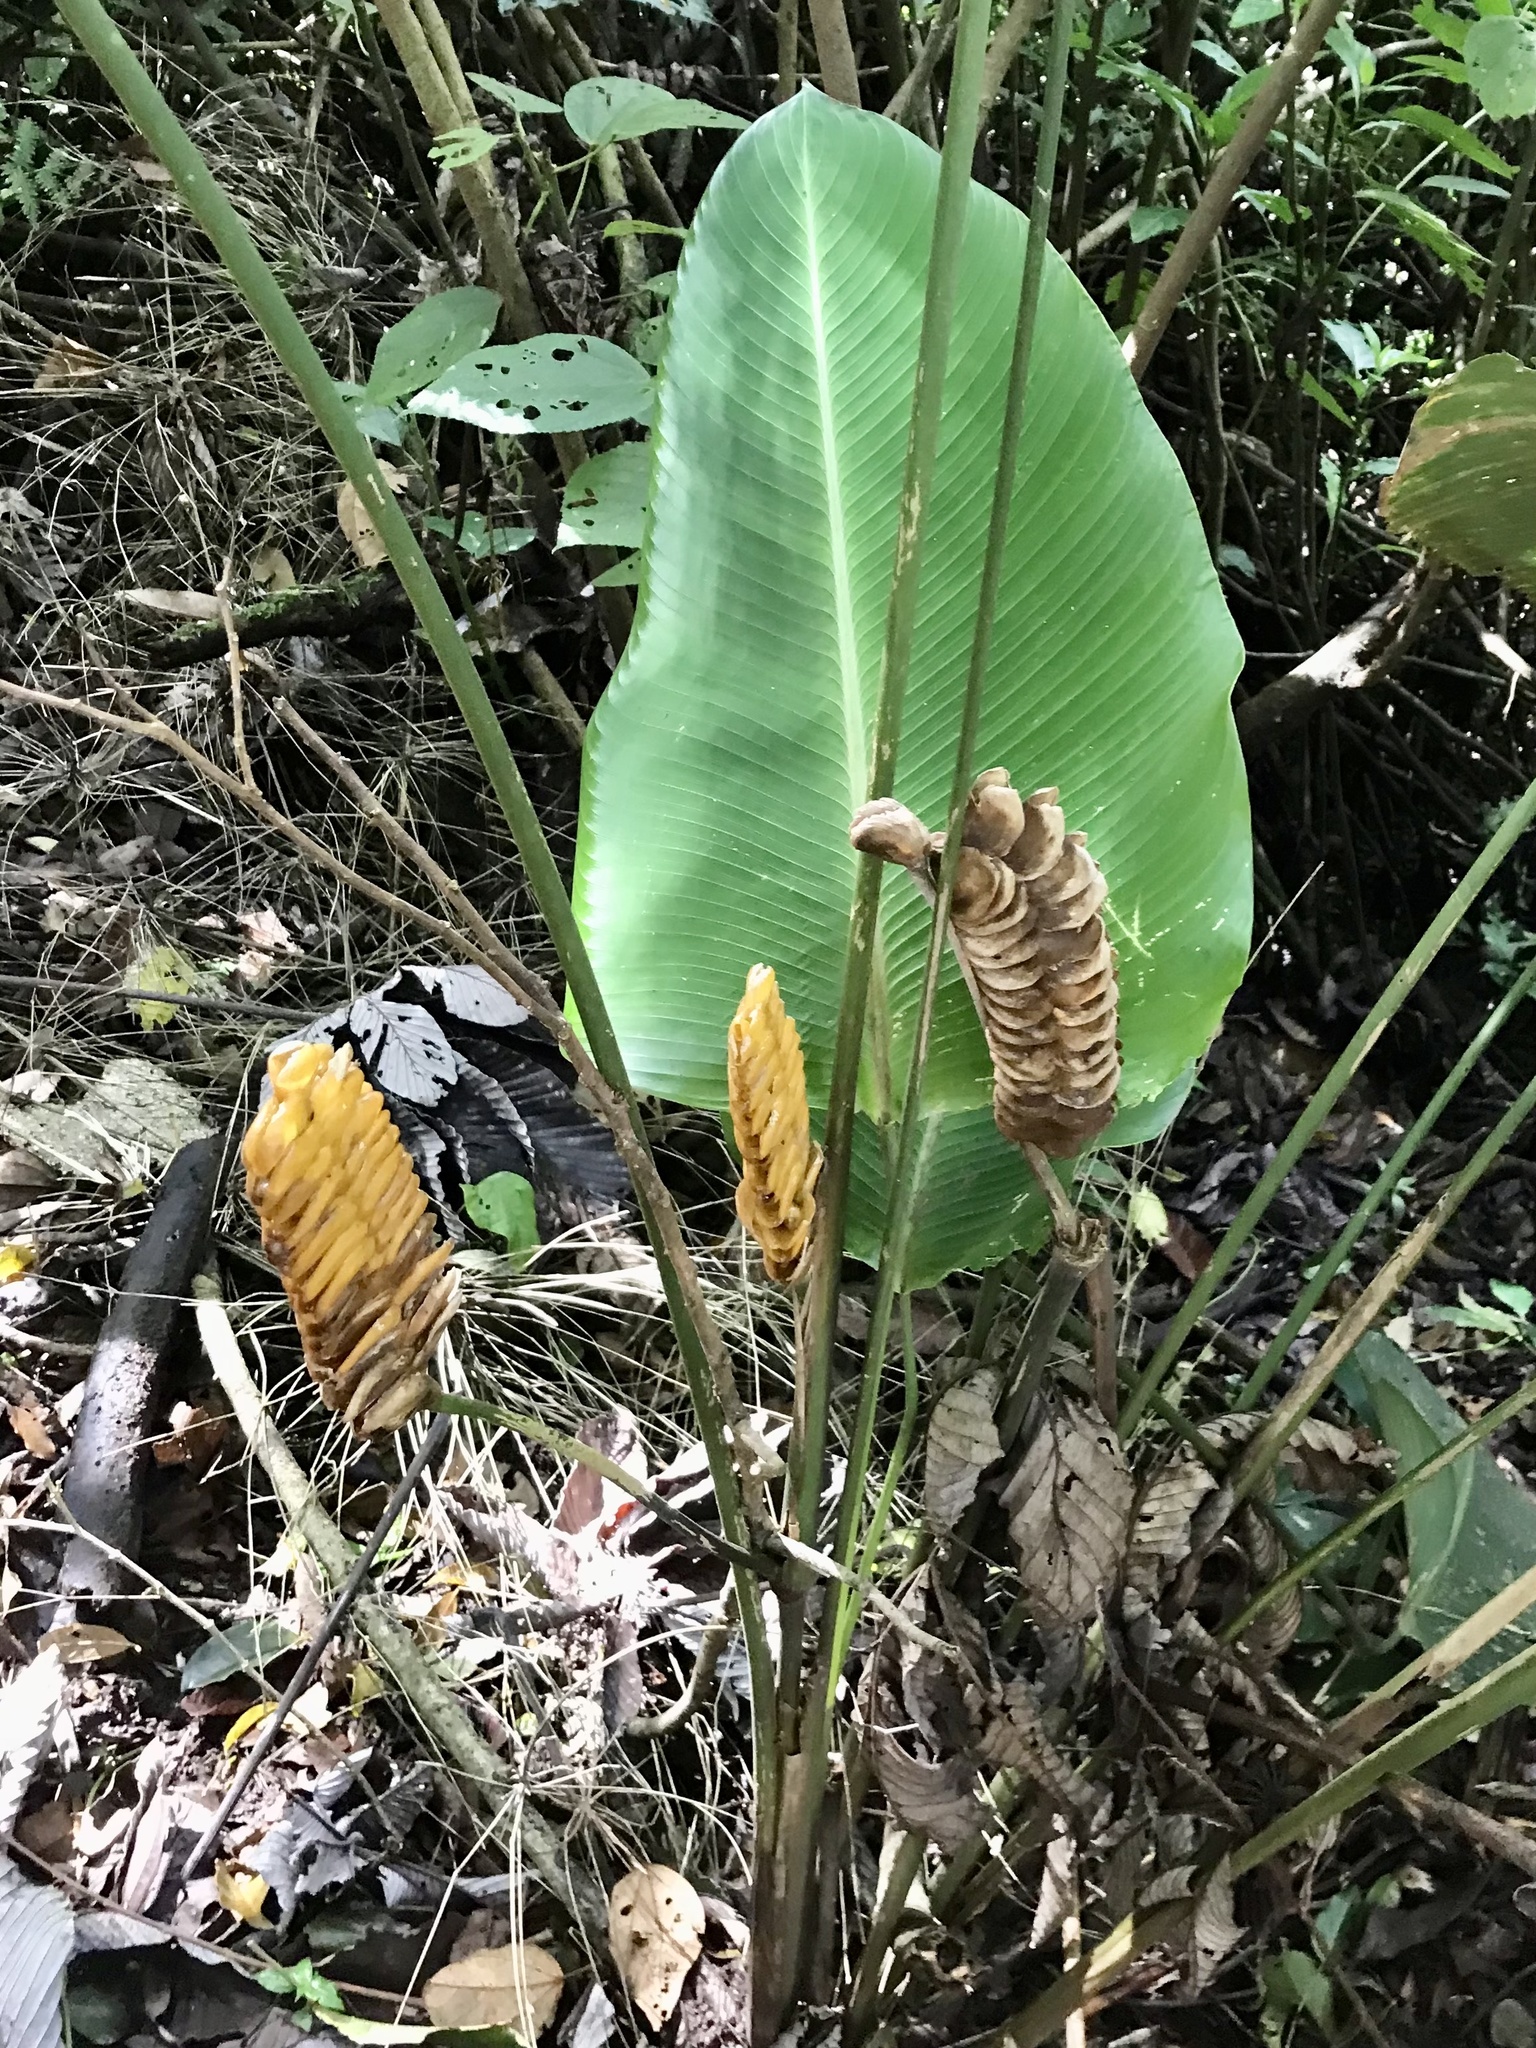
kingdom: Plantae
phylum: Tracheophyta
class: Liliopsida
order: Zingiberales
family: Marantaceae
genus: Calathea
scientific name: Calathea crotalifera
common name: Rattlesnake plant
